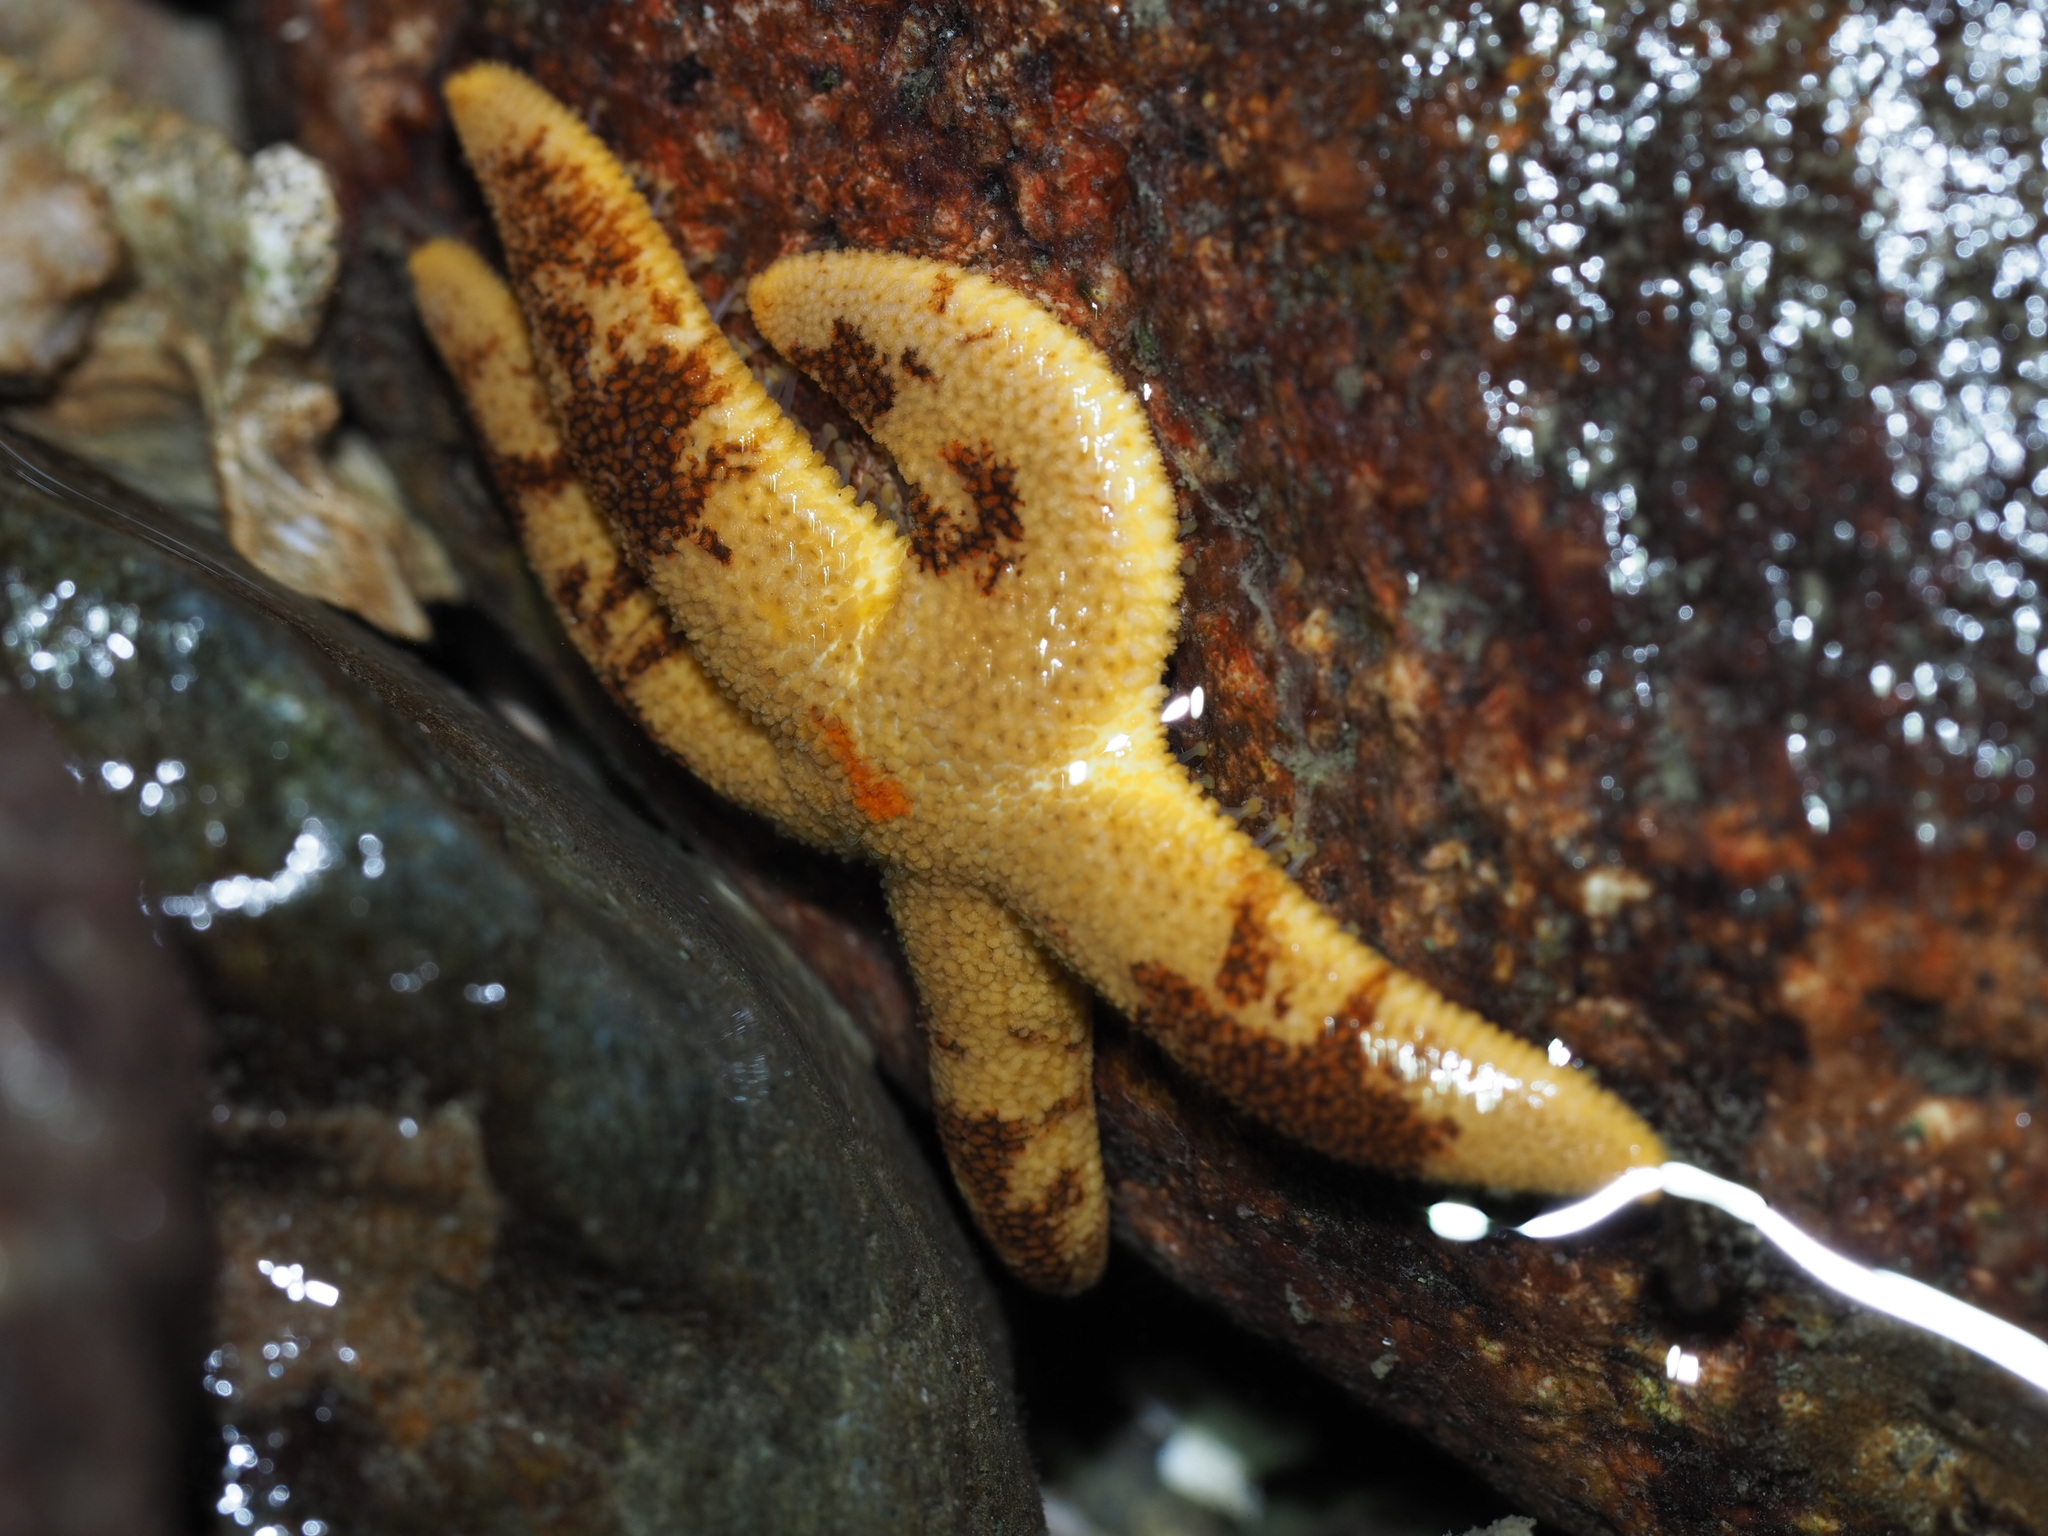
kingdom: Animalia
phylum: Echinodermata
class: Asteroidea
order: Spinulosida
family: Echinasteridae
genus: Henricia
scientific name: Henricia pumila
